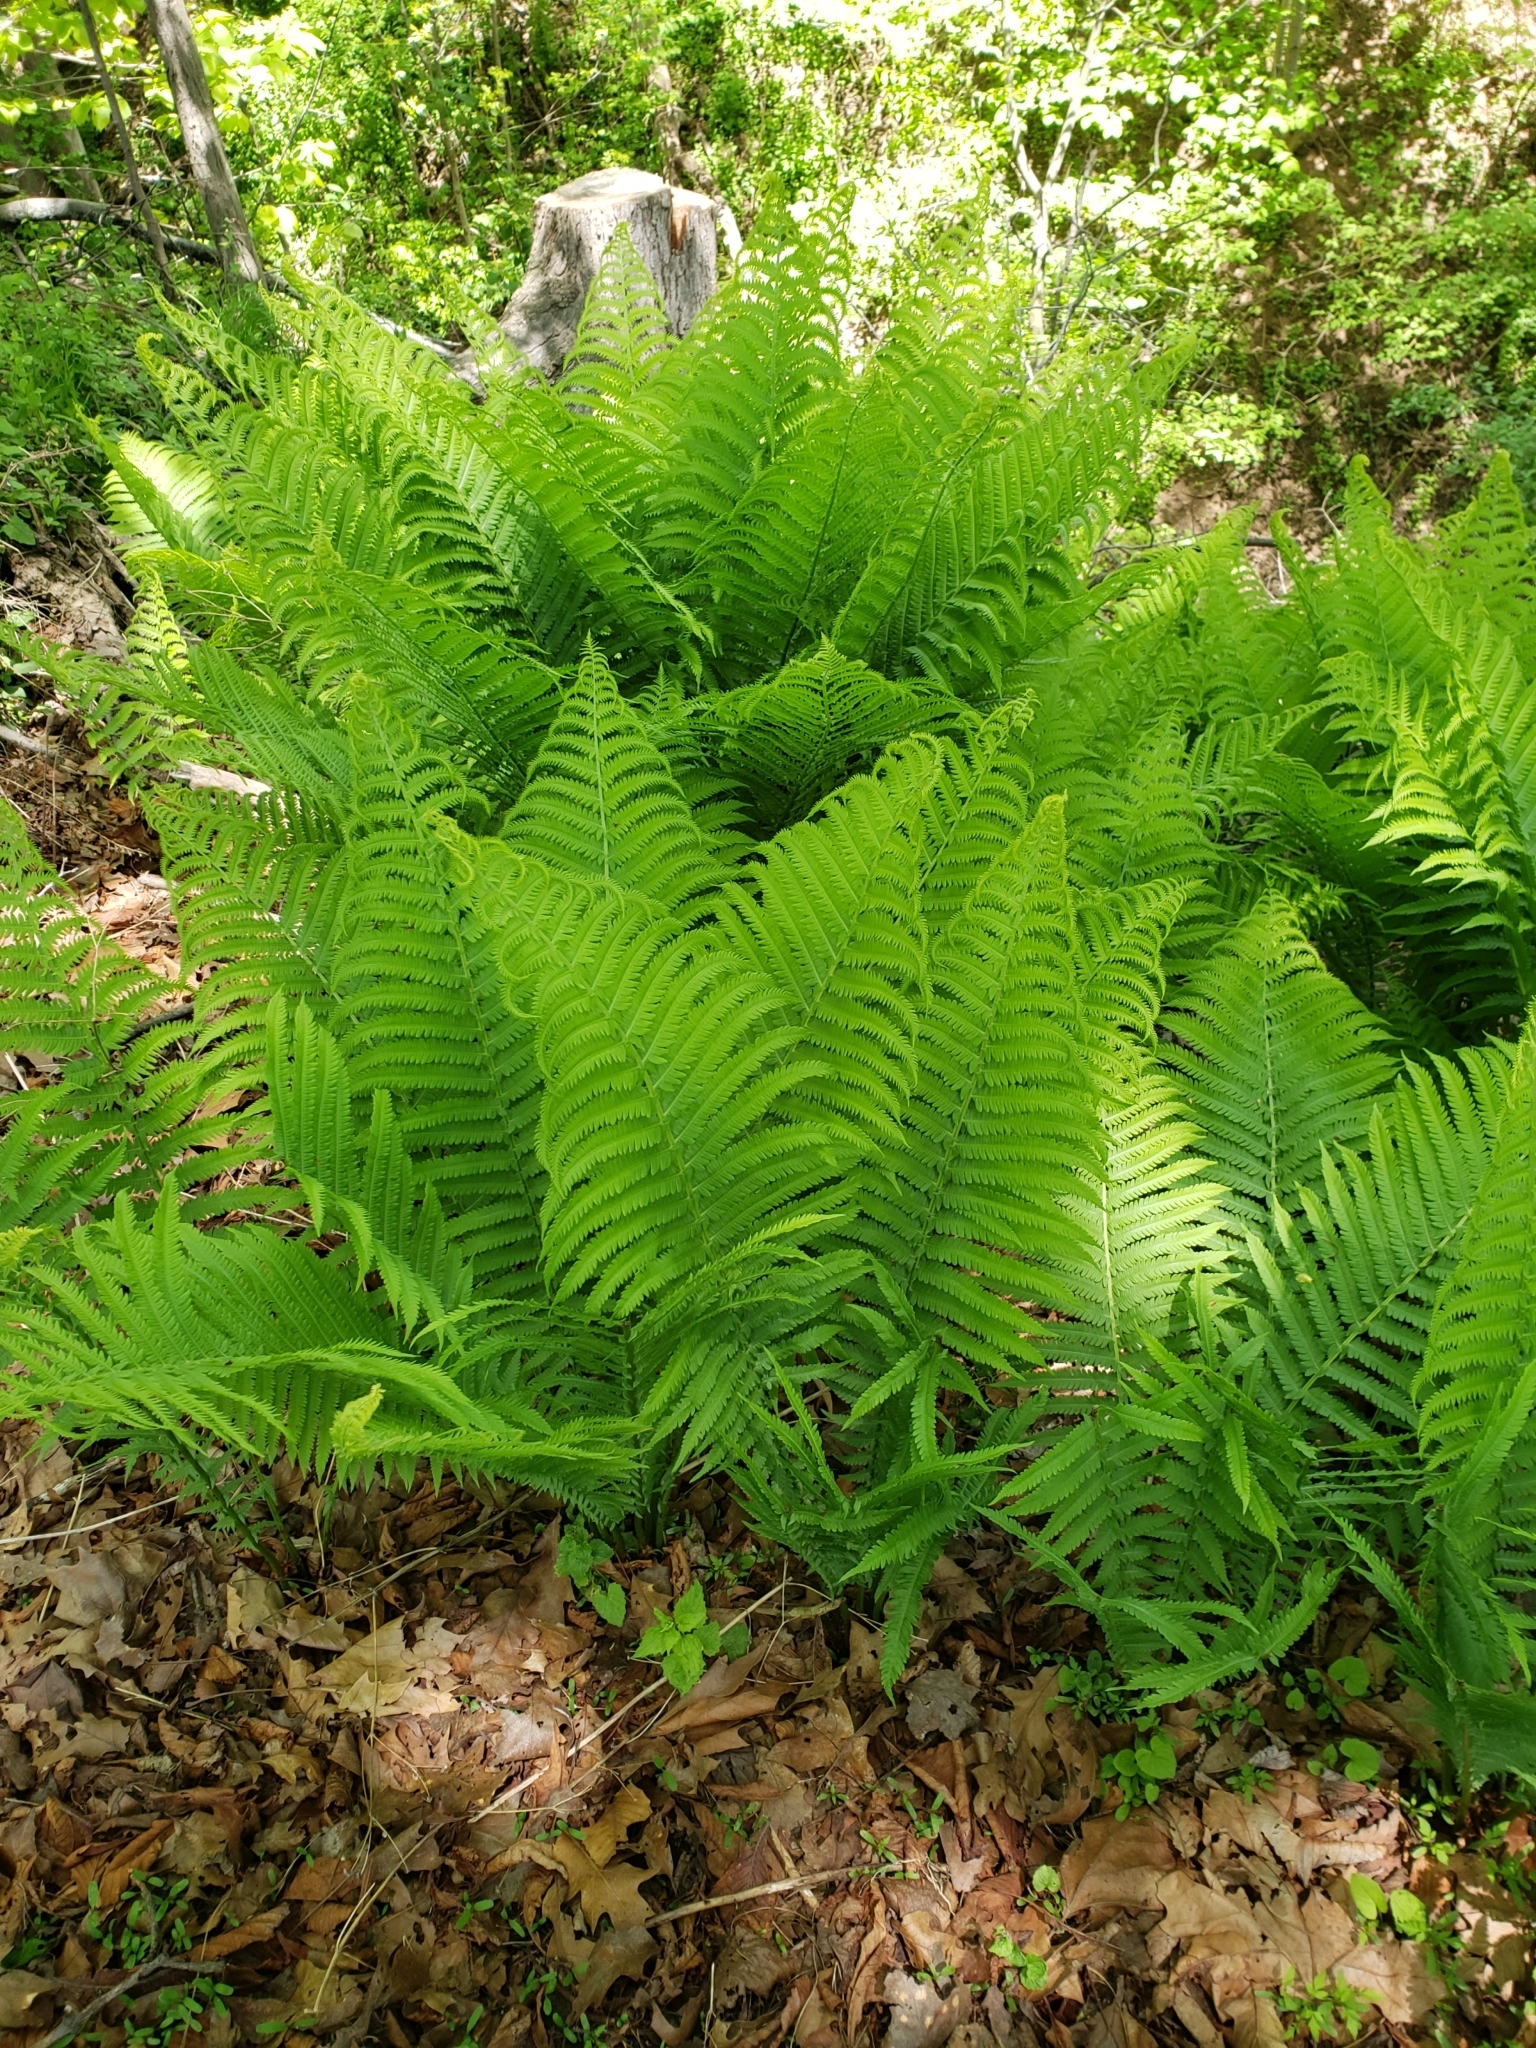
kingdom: Plantae
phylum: Tracheophyta
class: Polypodiopsida
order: Polypodiales
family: Onocleaceae
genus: Matteuccia
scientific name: Matteuccia struthiopteris
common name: Ostrich fern
